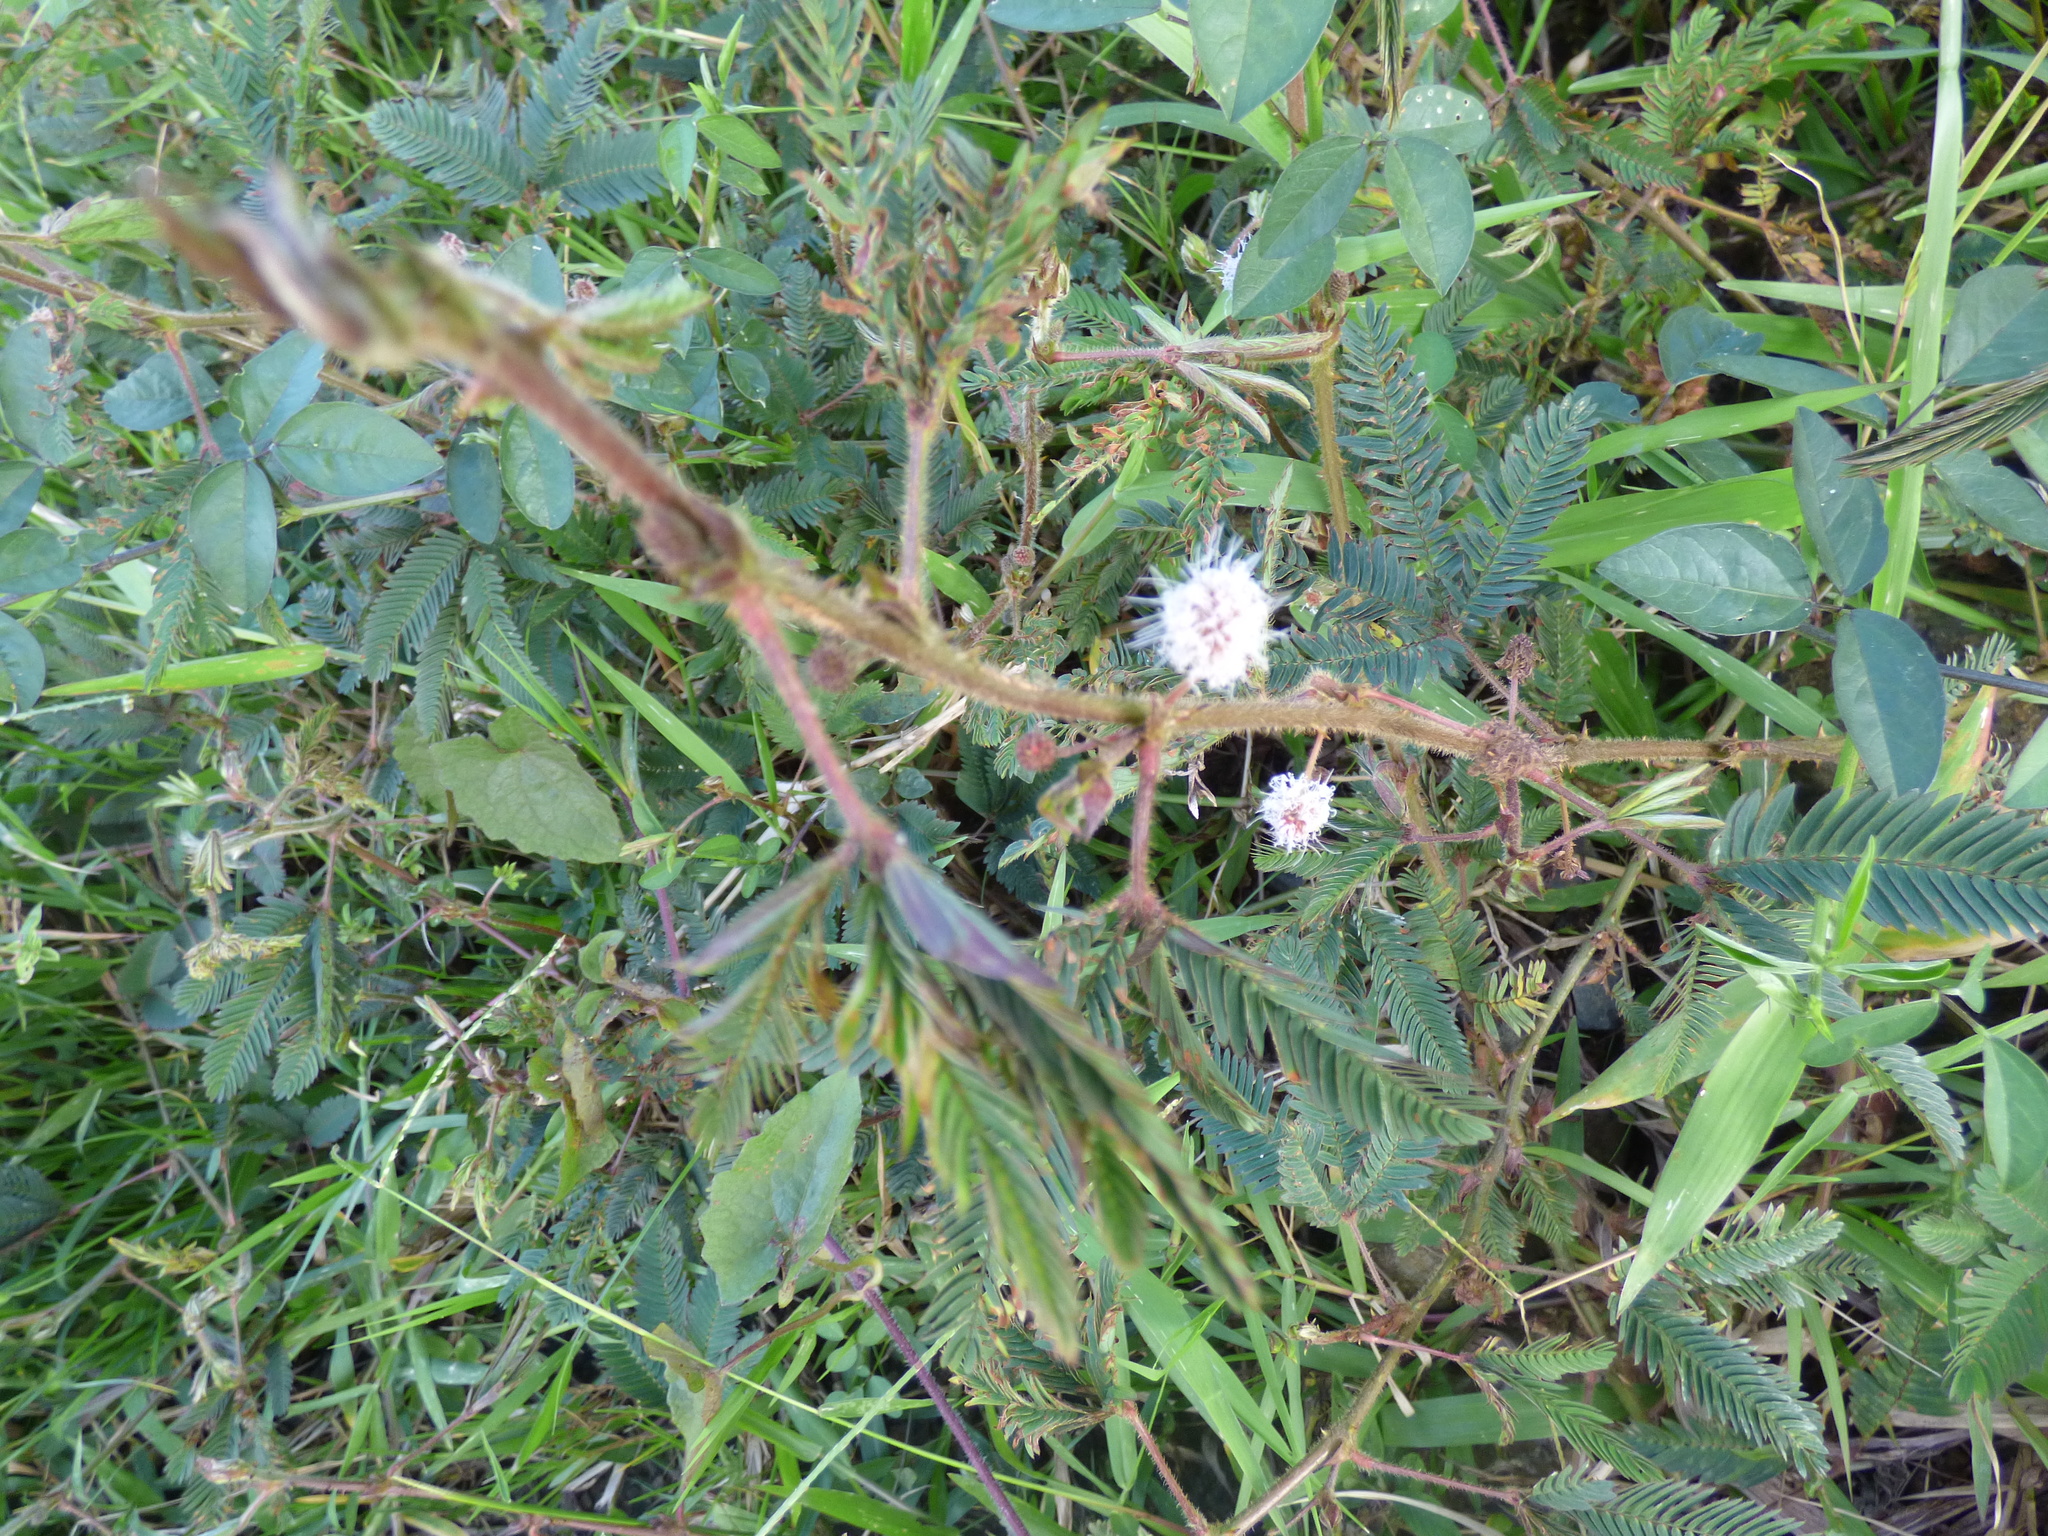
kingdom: Plantae
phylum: Tracheophyta
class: Magnoliopsida
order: Fabales
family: Fabaceae
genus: Mimosa
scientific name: Mimosa pudica
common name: Sensitive plant
